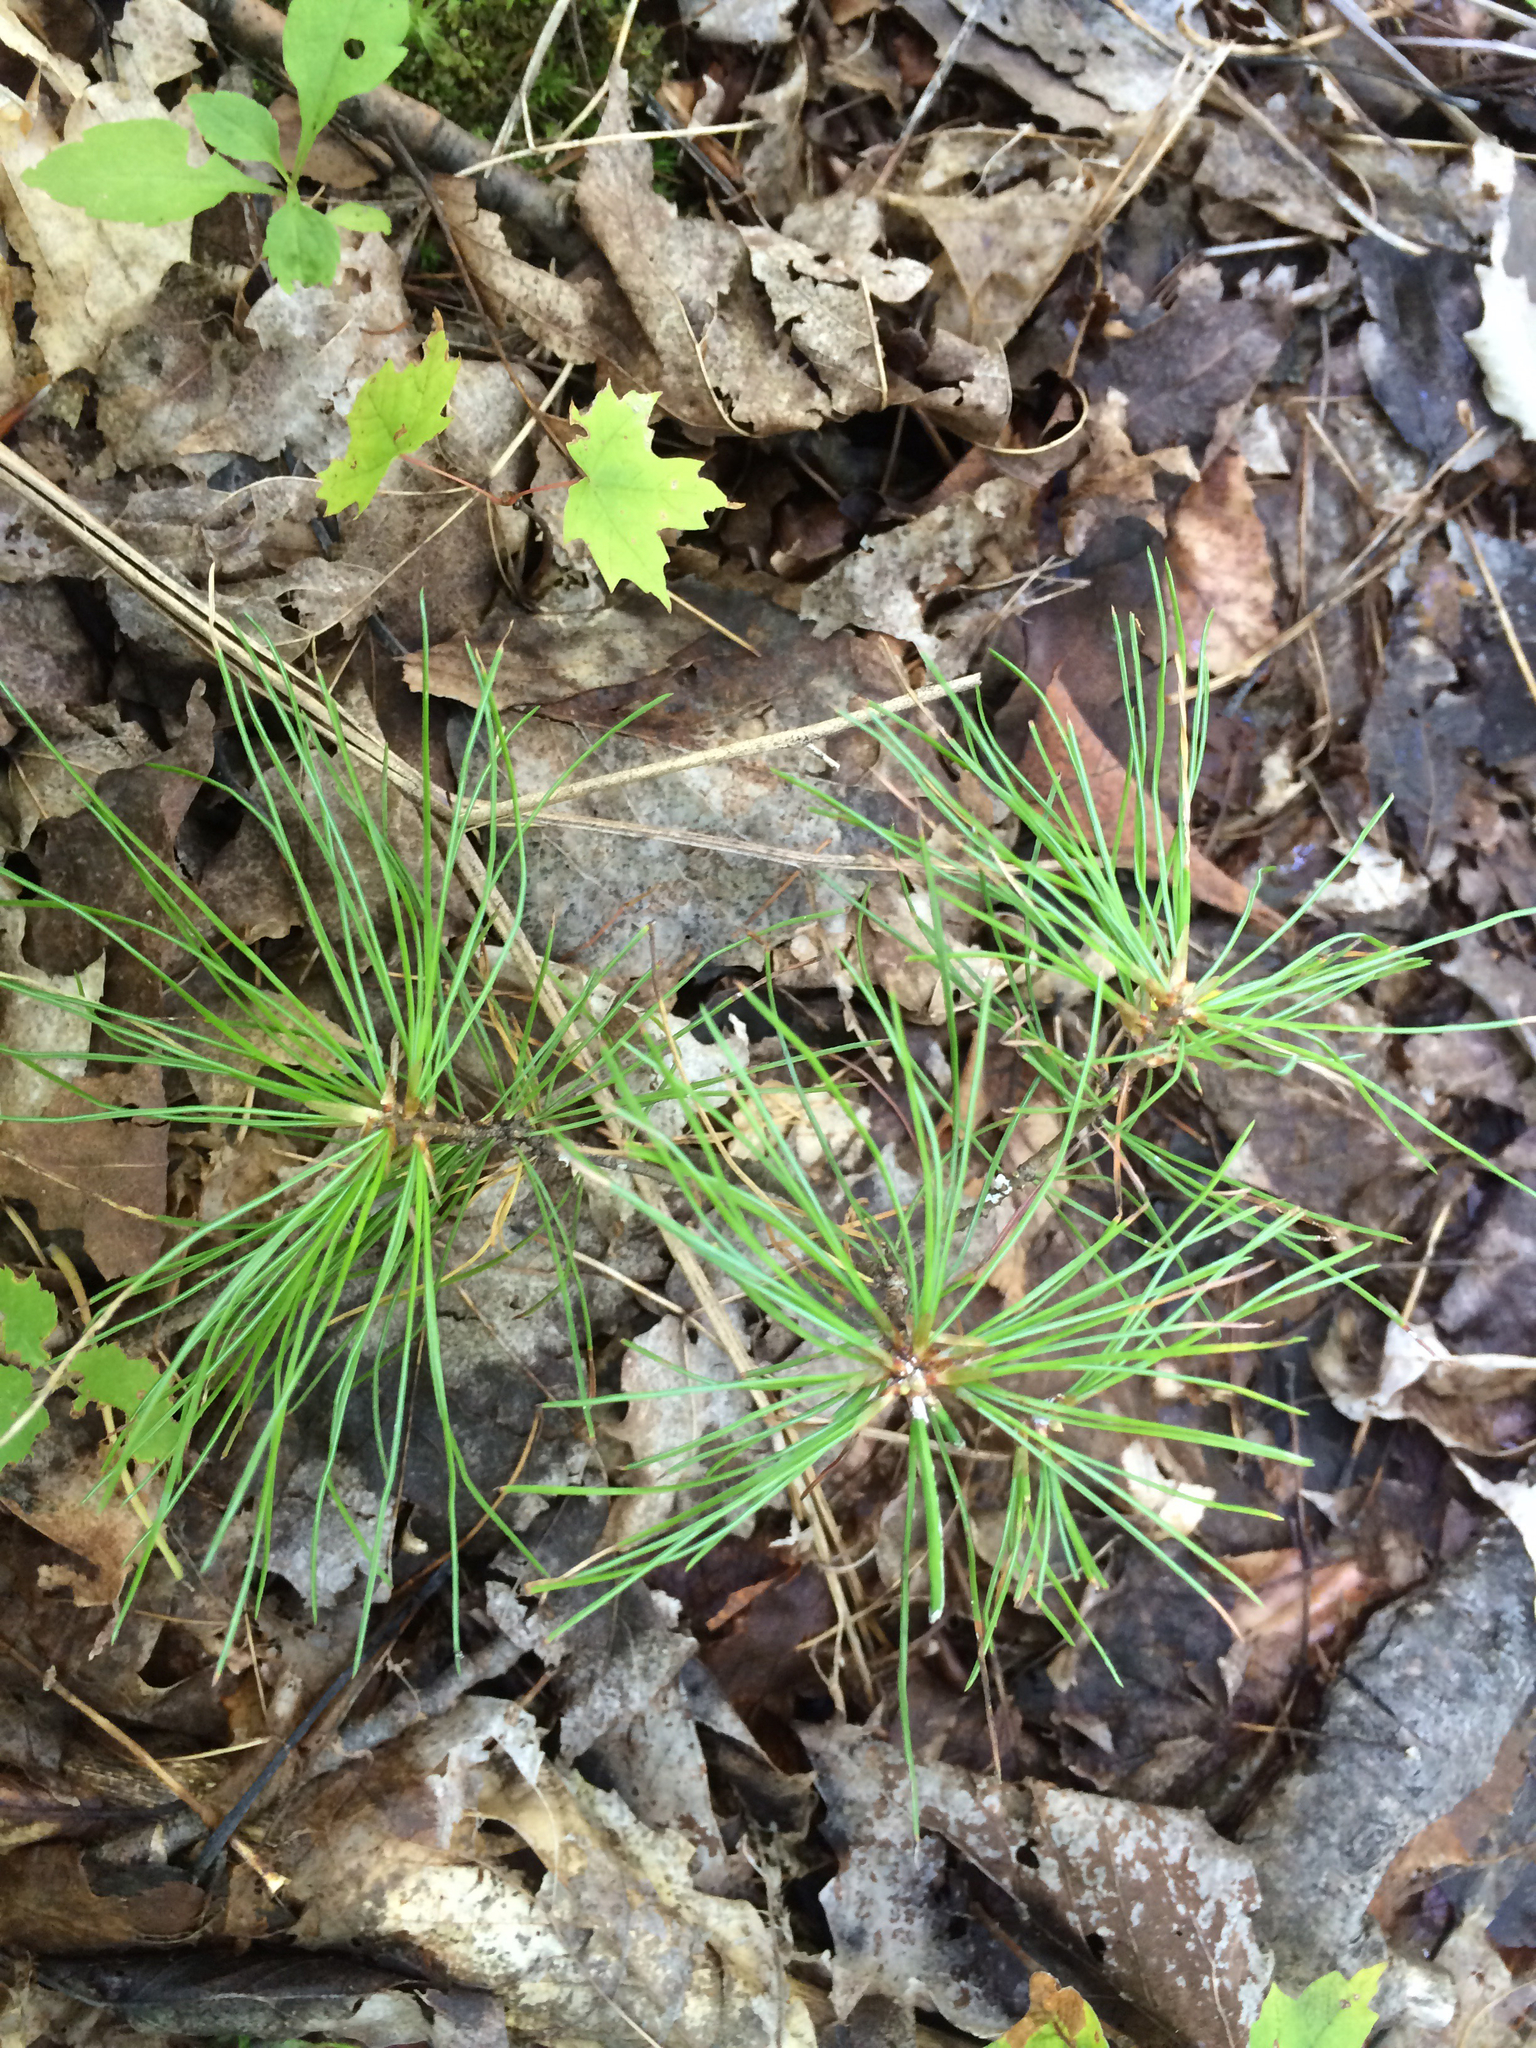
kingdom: Plantae
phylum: Tracheophyta
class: Pinopsida
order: Pinales
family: Pinaceae
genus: Pinus
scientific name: Pinus strobus
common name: Weymouth pine
